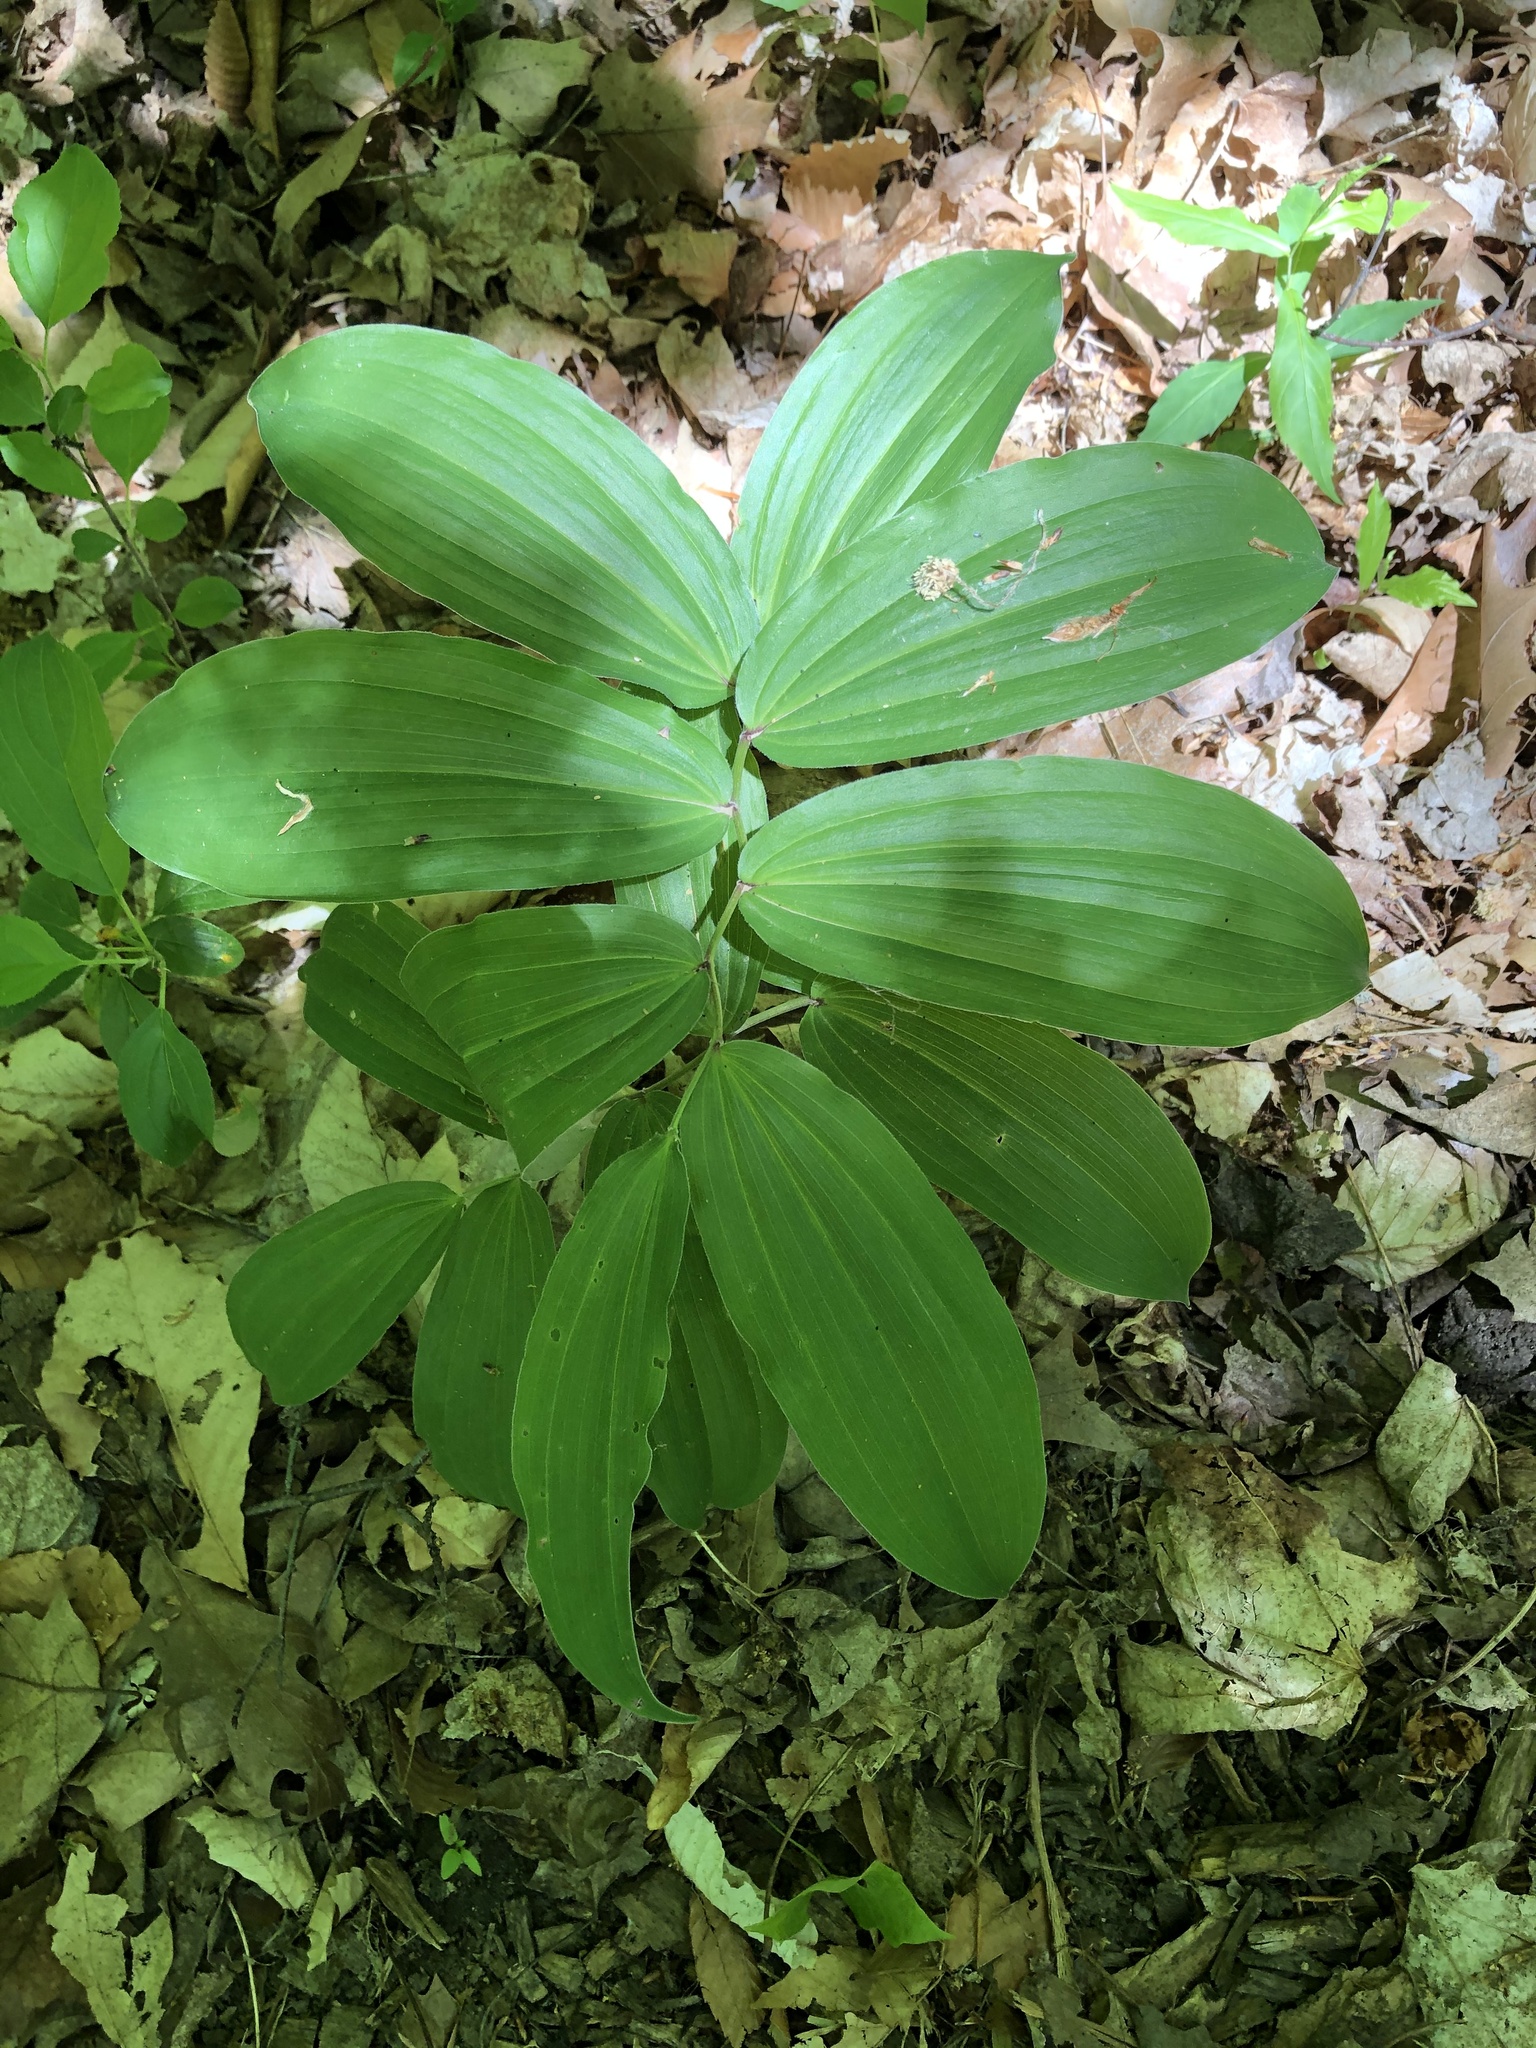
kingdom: Plantae
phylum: Tracheophyta
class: Liliopsida
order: Asparagales
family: Asparagaceae
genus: Maianthemum
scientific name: Maianthemum racemosum
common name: False spikenard
